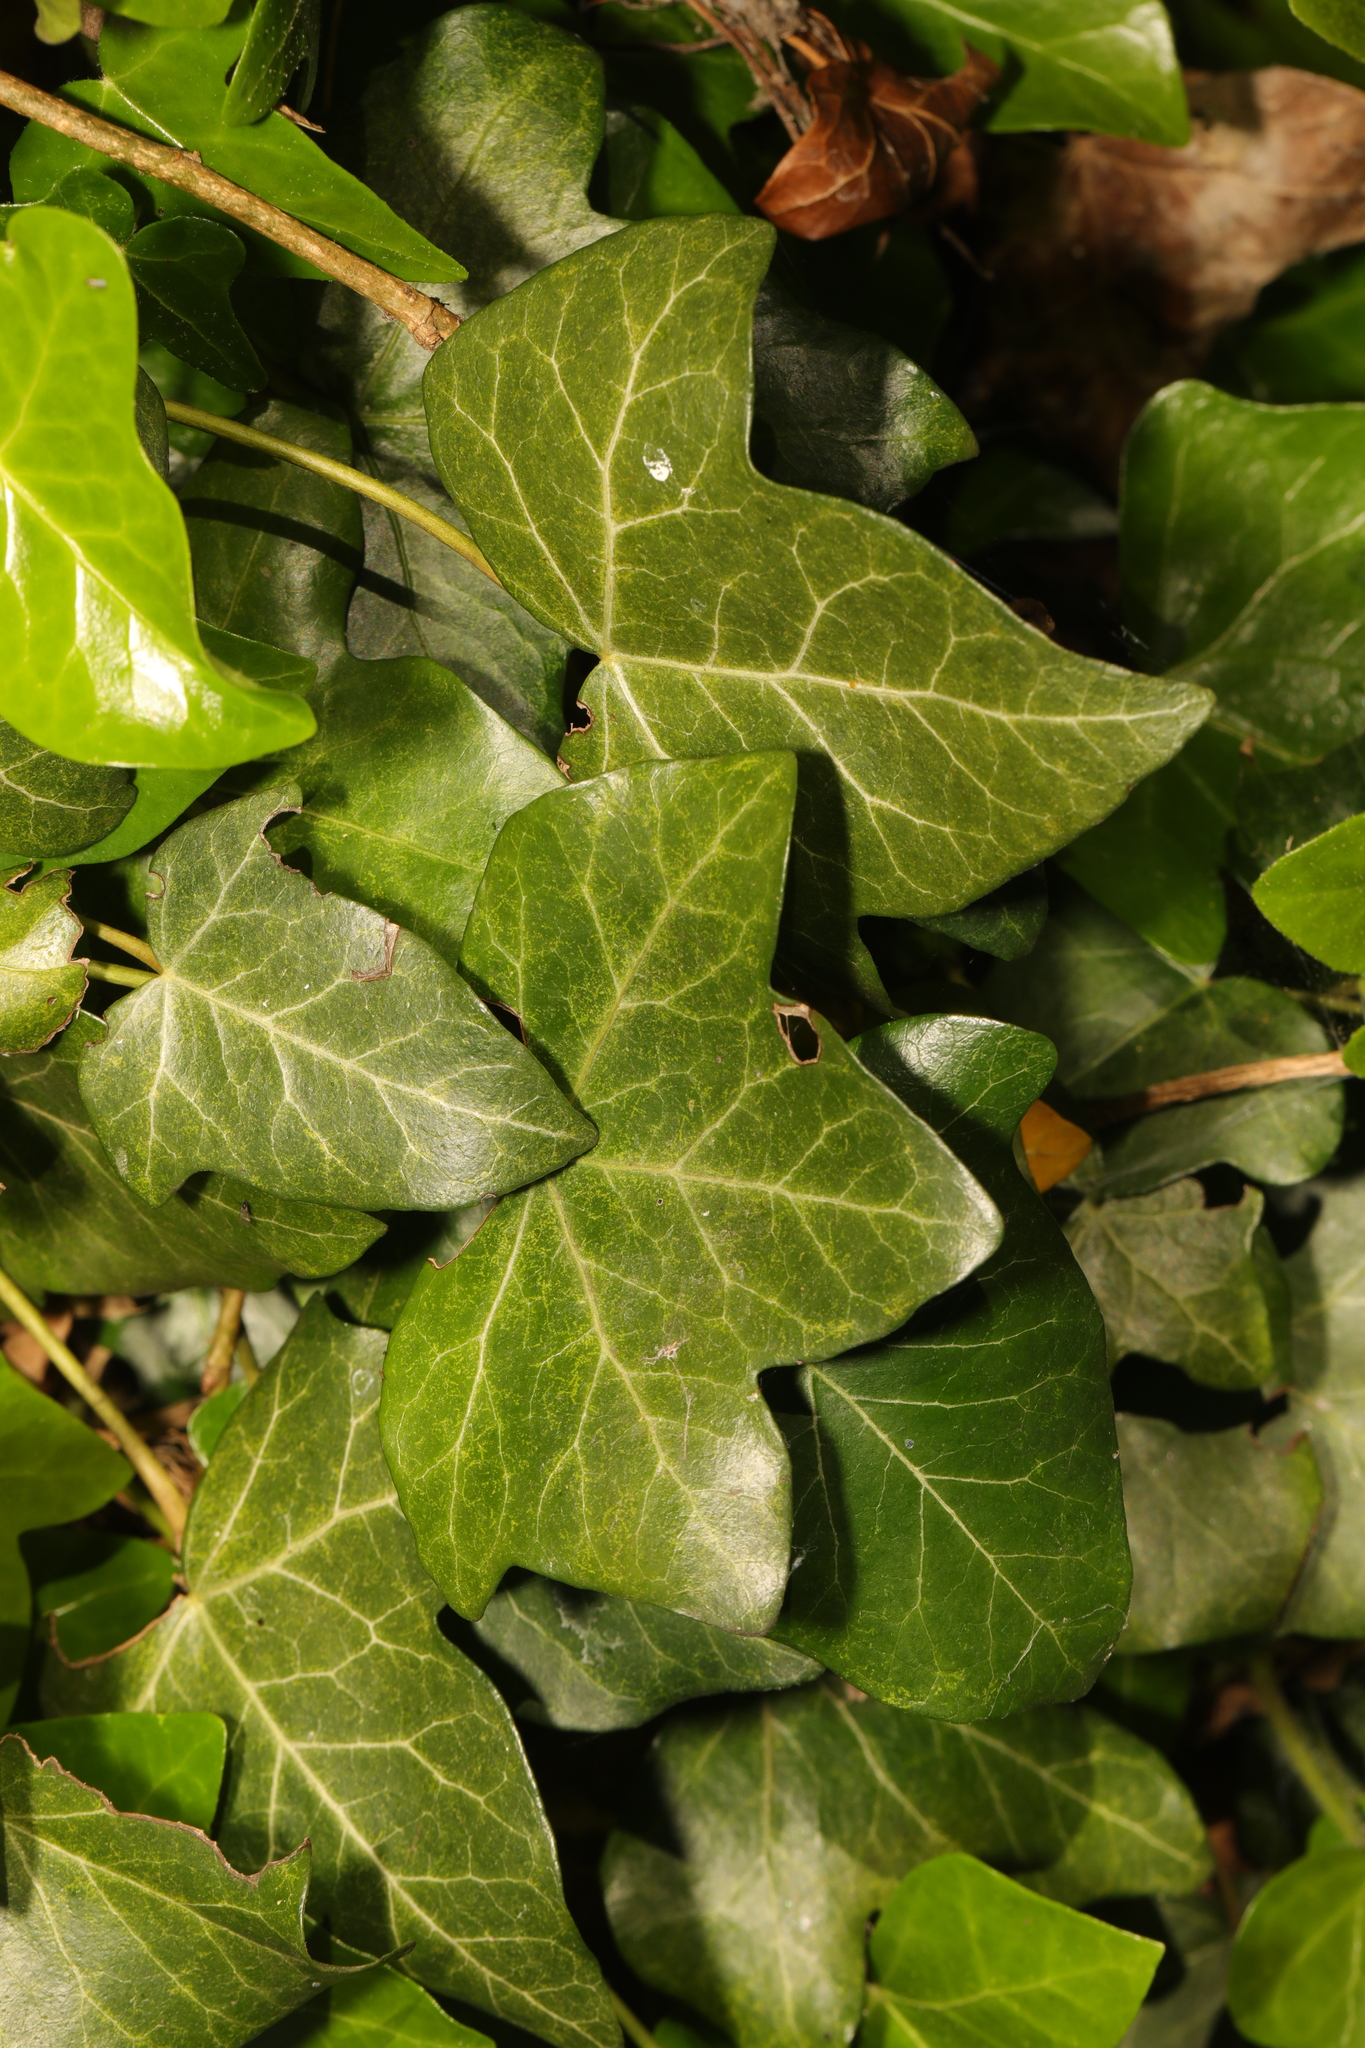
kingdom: Plantae
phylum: Tracheophyta
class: Magnoliopsida
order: Apiales
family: Araliaceae
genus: Hedera
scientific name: Hedera helix
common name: Ivy
